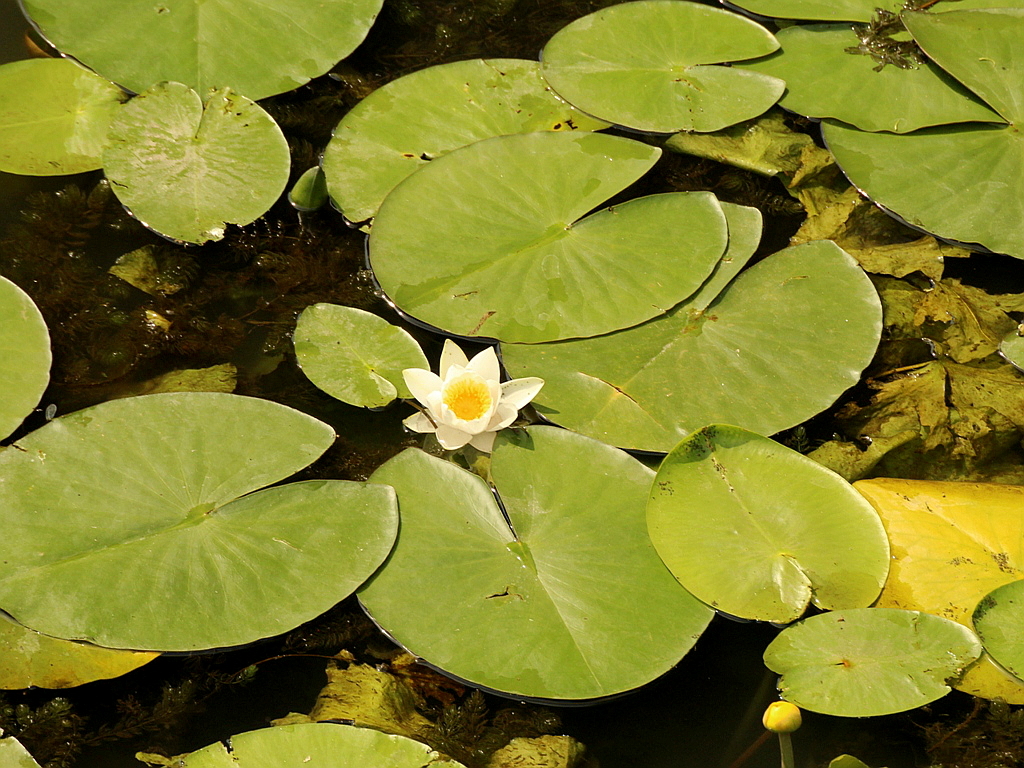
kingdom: Plantae
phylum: Tracheophyta
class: Magnoliopsida
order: Nymphaeales
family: Nymphaeaceae
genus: Nymphaea
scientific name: Nymphaea candida
